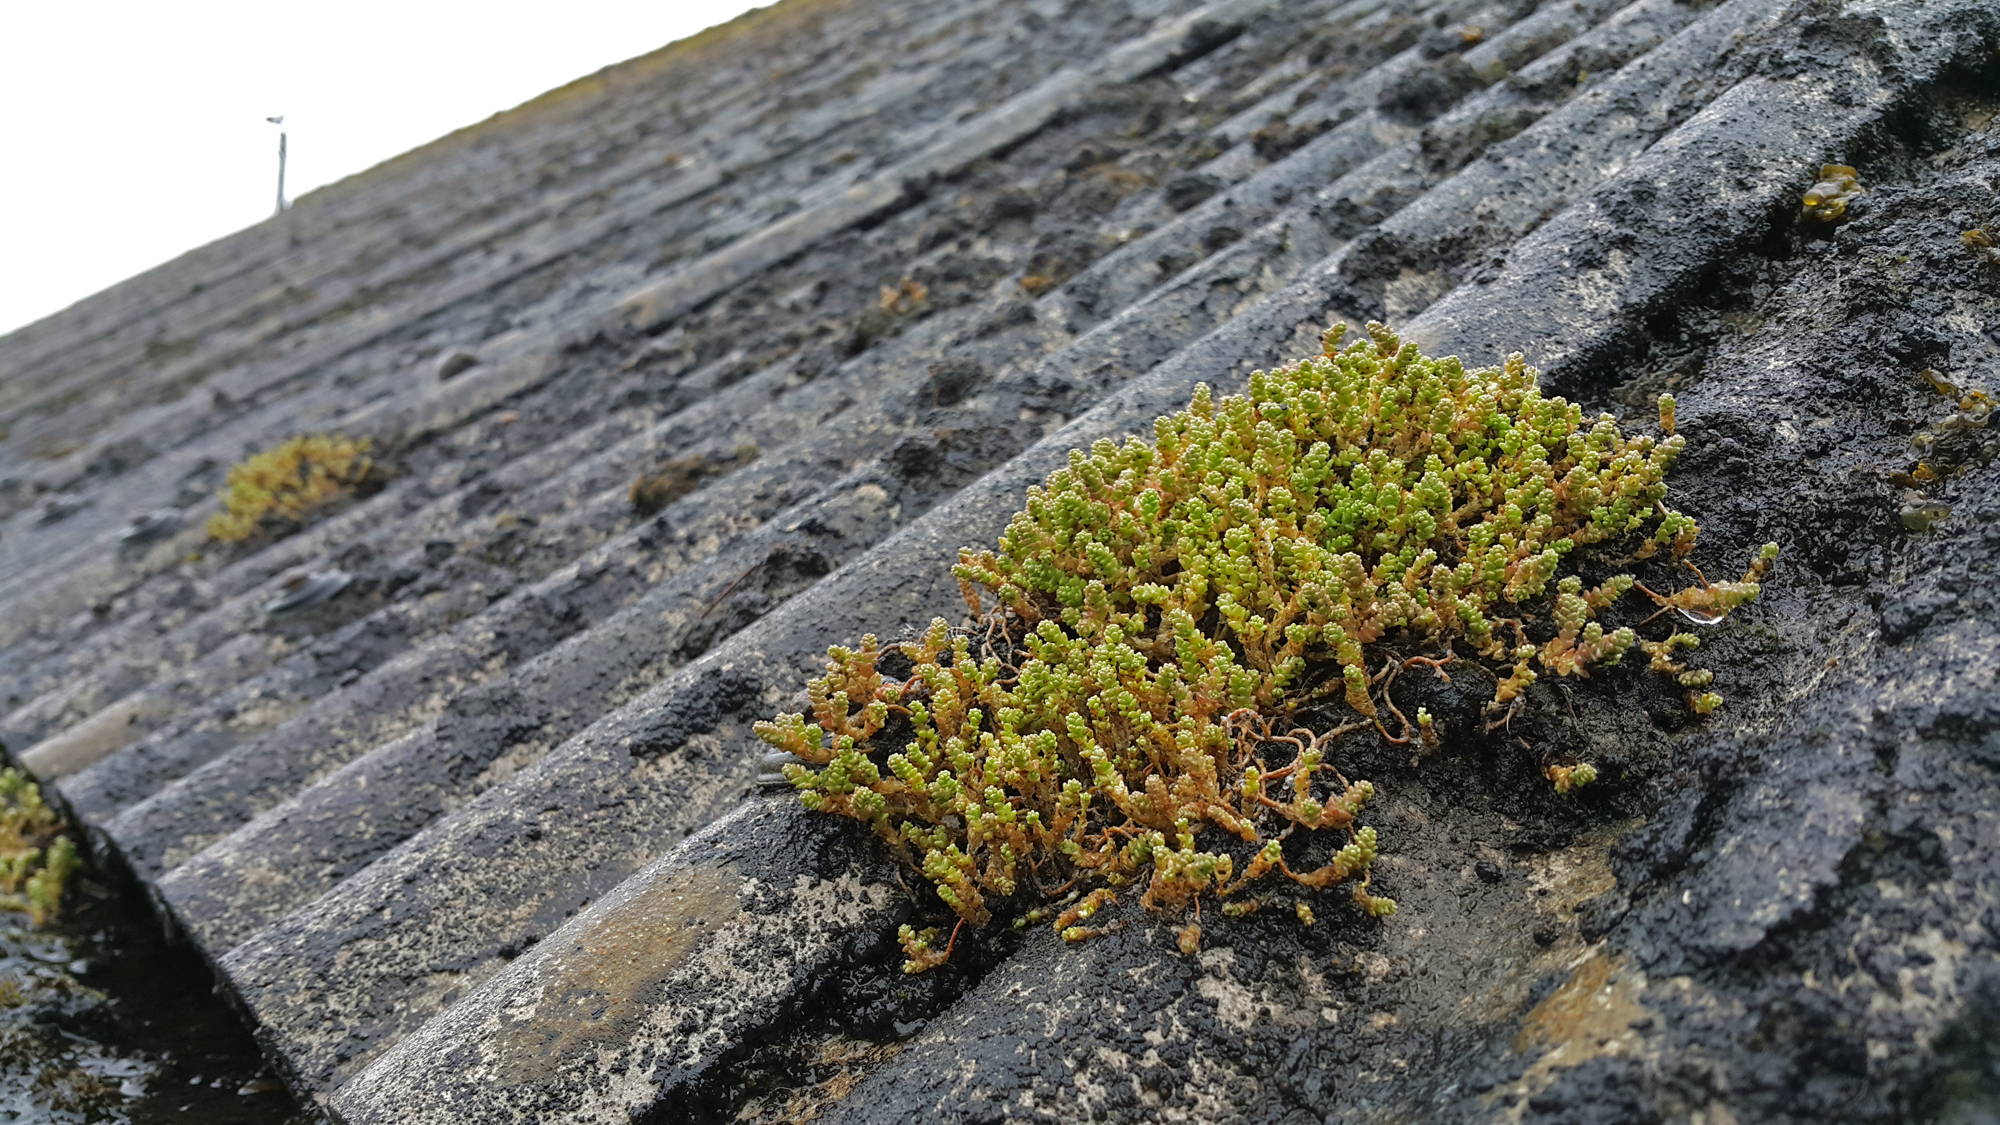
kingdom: Plantae
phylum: Tracheophyta
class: Magnoliopsida
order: Saxifragales
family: Crassulaceae
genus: Sedum
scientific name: Sedum acre
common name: Biting stonecrop
